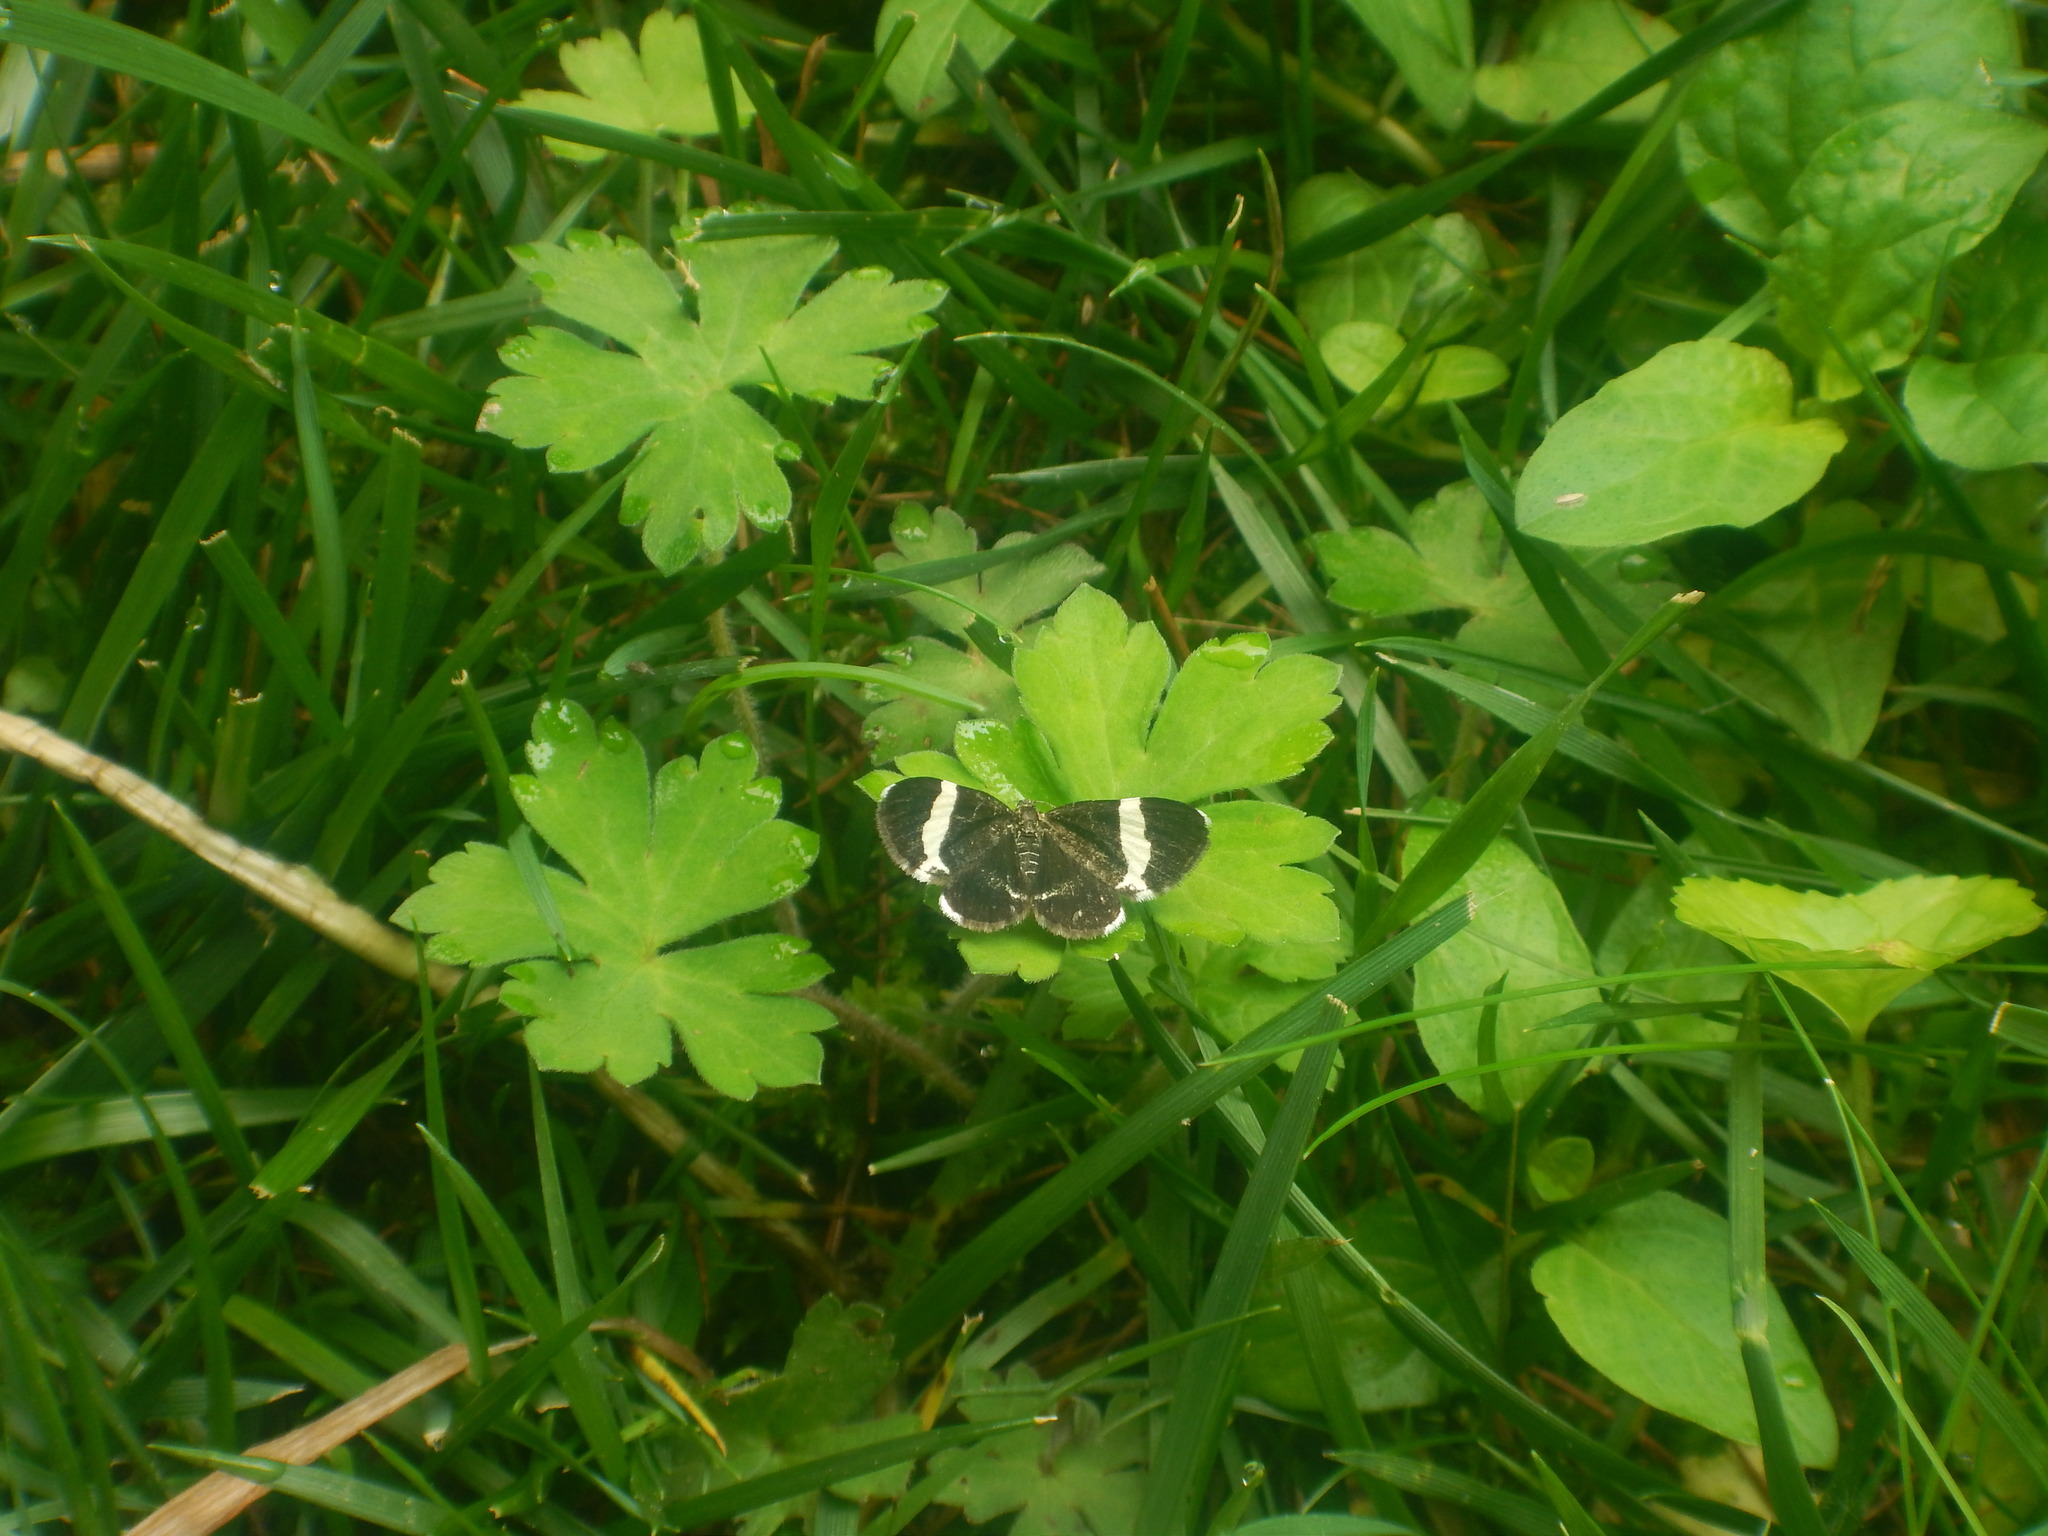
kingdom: Animalia
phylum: Arthropoda
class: Insecta
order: Lepidoptera
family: Geometridae
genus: Trichodezia
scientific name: Trichodezia albovittata
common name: White striped black
